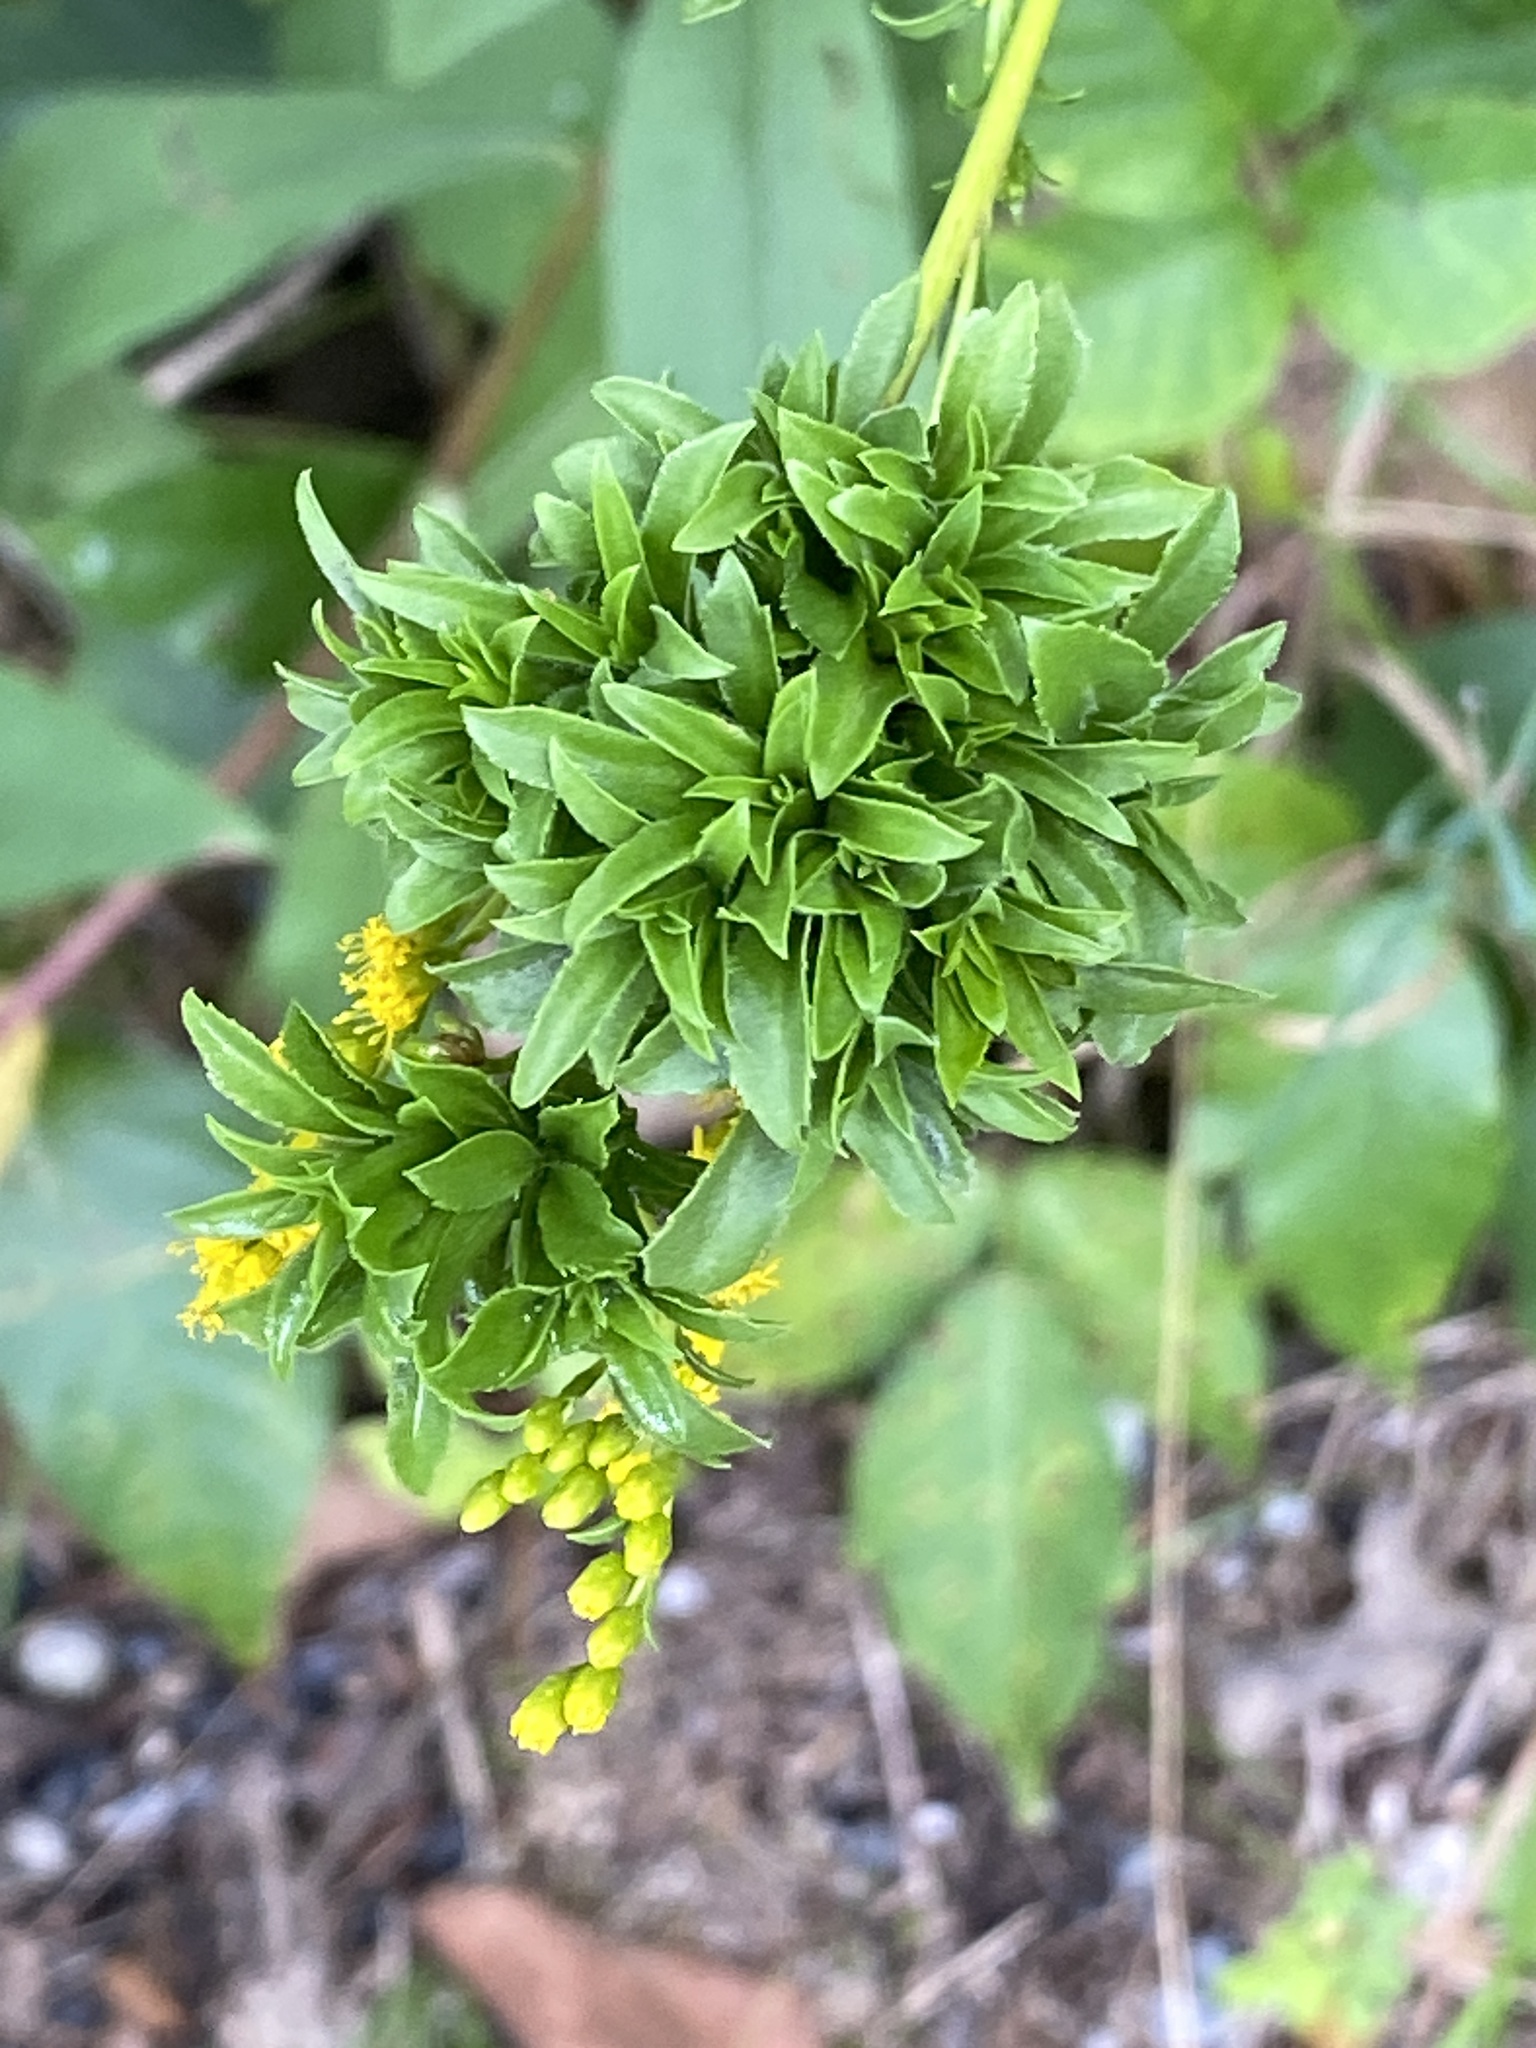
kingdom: Animalia
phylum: Arthropoda
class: Insecta
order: Diptera
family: Cecidomyiidae
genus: Asphondylia
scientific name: Asphondylia monacha
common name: Nun midge
